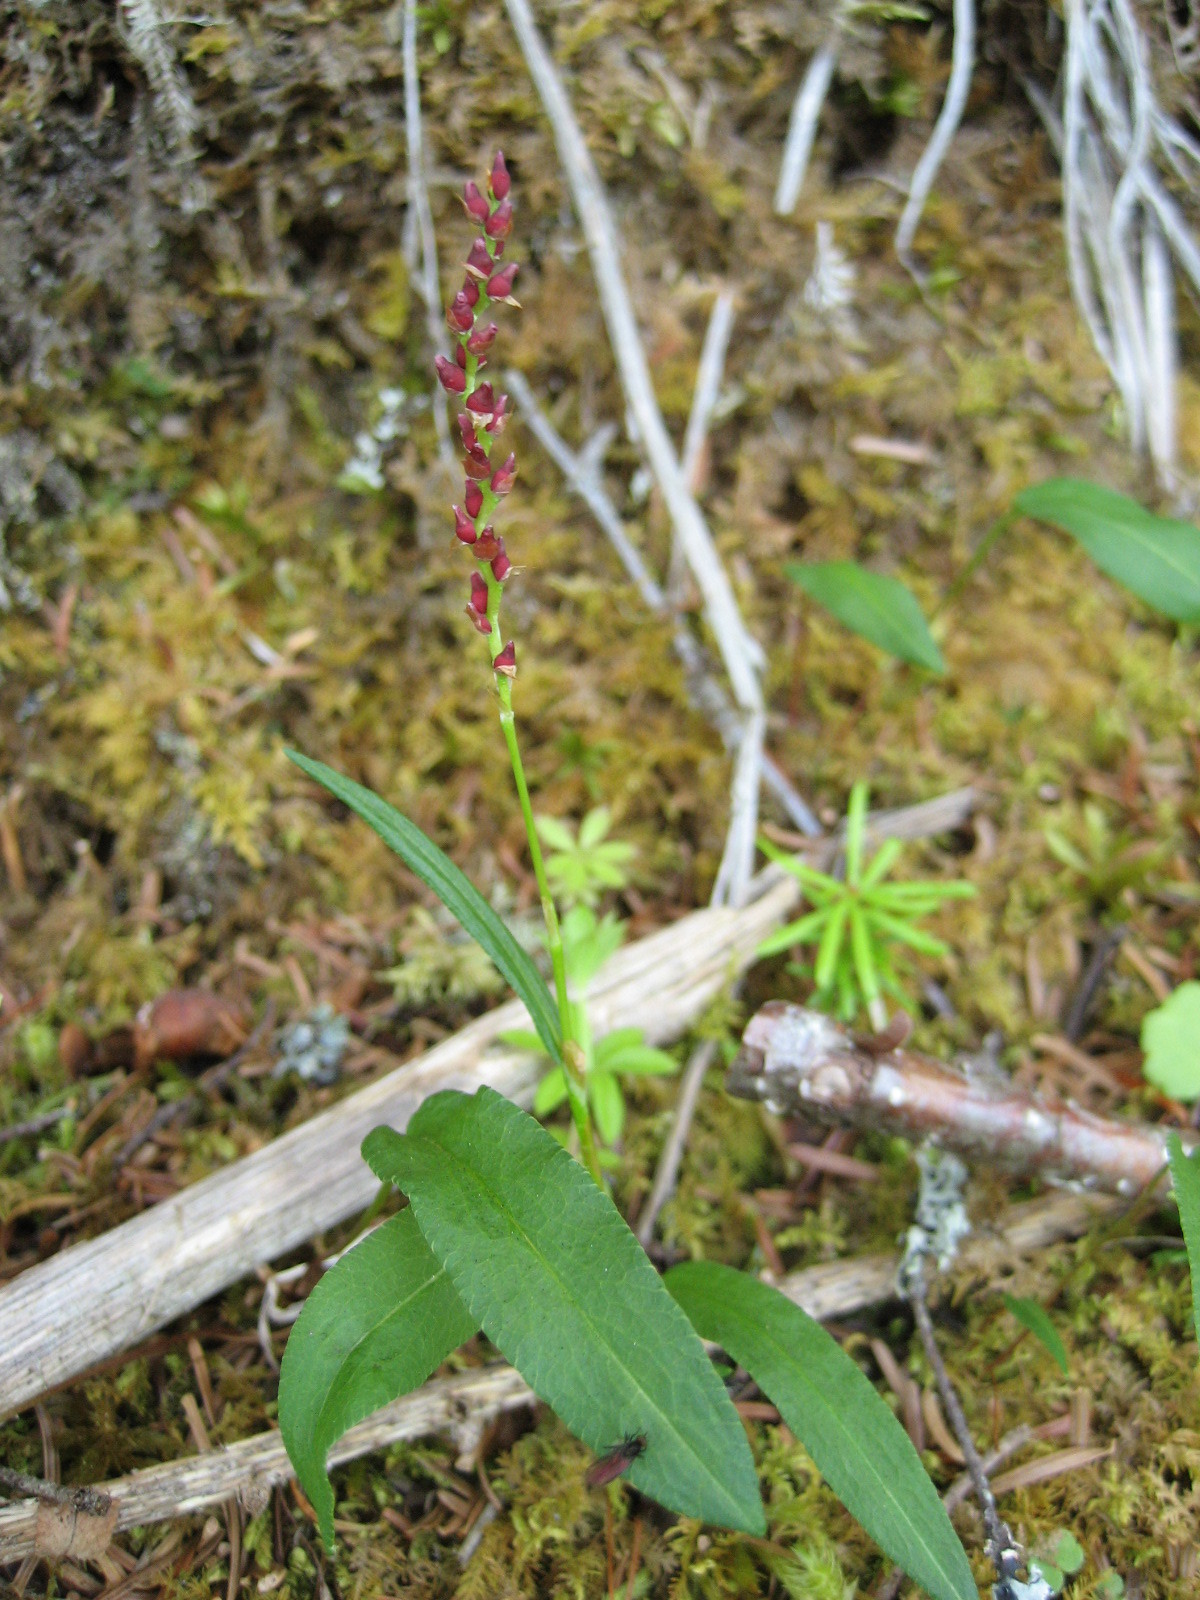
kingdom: Plantae
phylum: Tracheophyta
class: Magnoliopsida
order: Caryophyllales
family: Polygonaceae
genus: Bistorta
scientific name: Bistorta vivipara
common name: Alpine bistort
